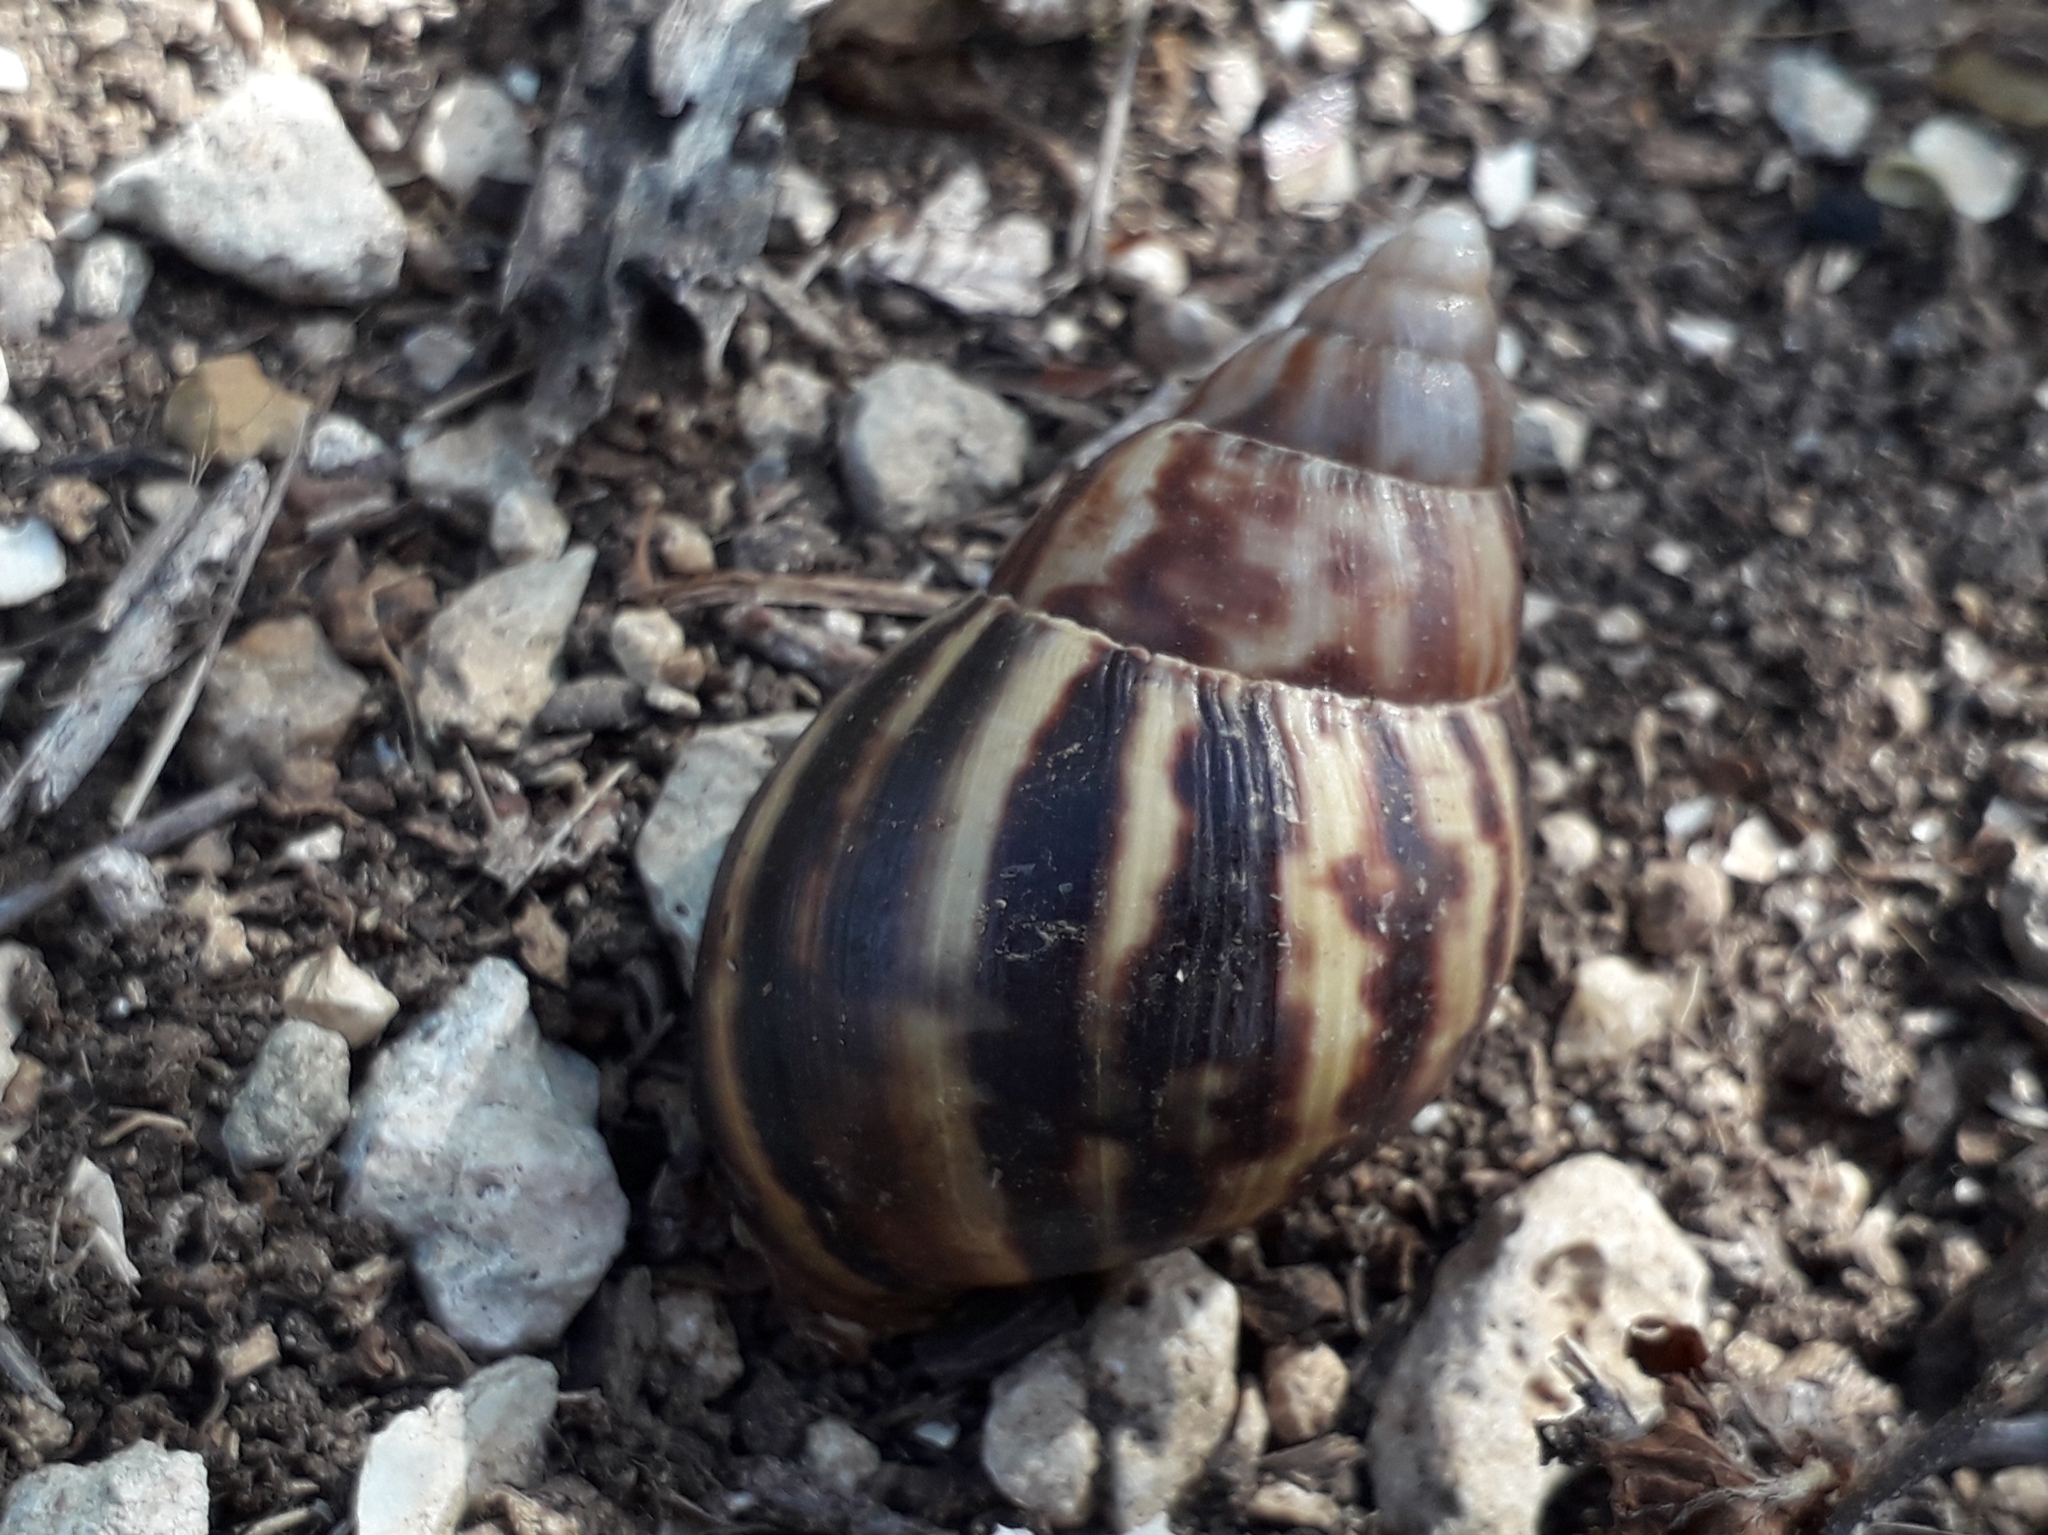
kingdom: Animalia
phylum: Mollusca
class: Gastropoda
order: Stylommatophora
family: Achatinidae
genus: Lissachatina
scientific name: Lissachatina fulica
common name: Giant african snail
